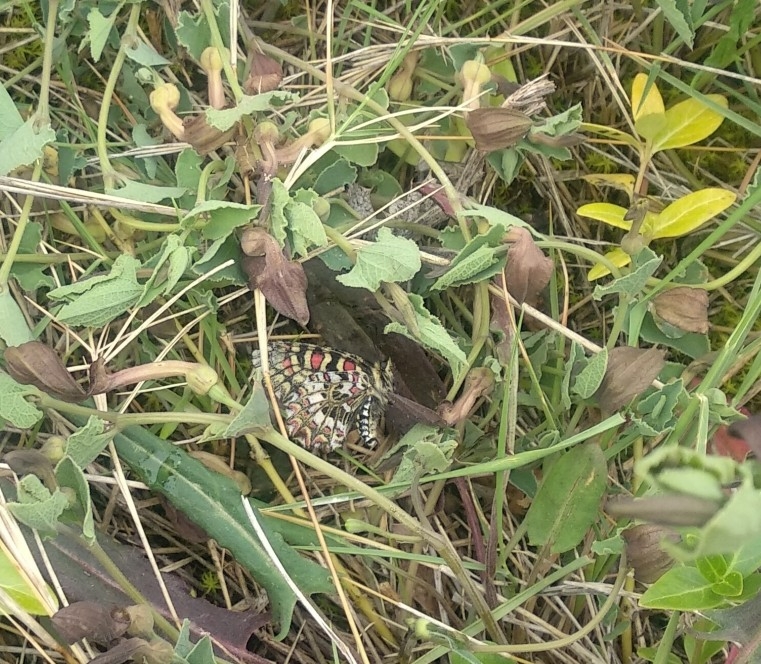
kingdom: Animalia
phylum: Arthropoda
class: Insecta
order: Lepidoptera
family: Papilionidae
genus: Zerynthia
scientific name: Zerynthia rumina
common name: Spanish festoon
